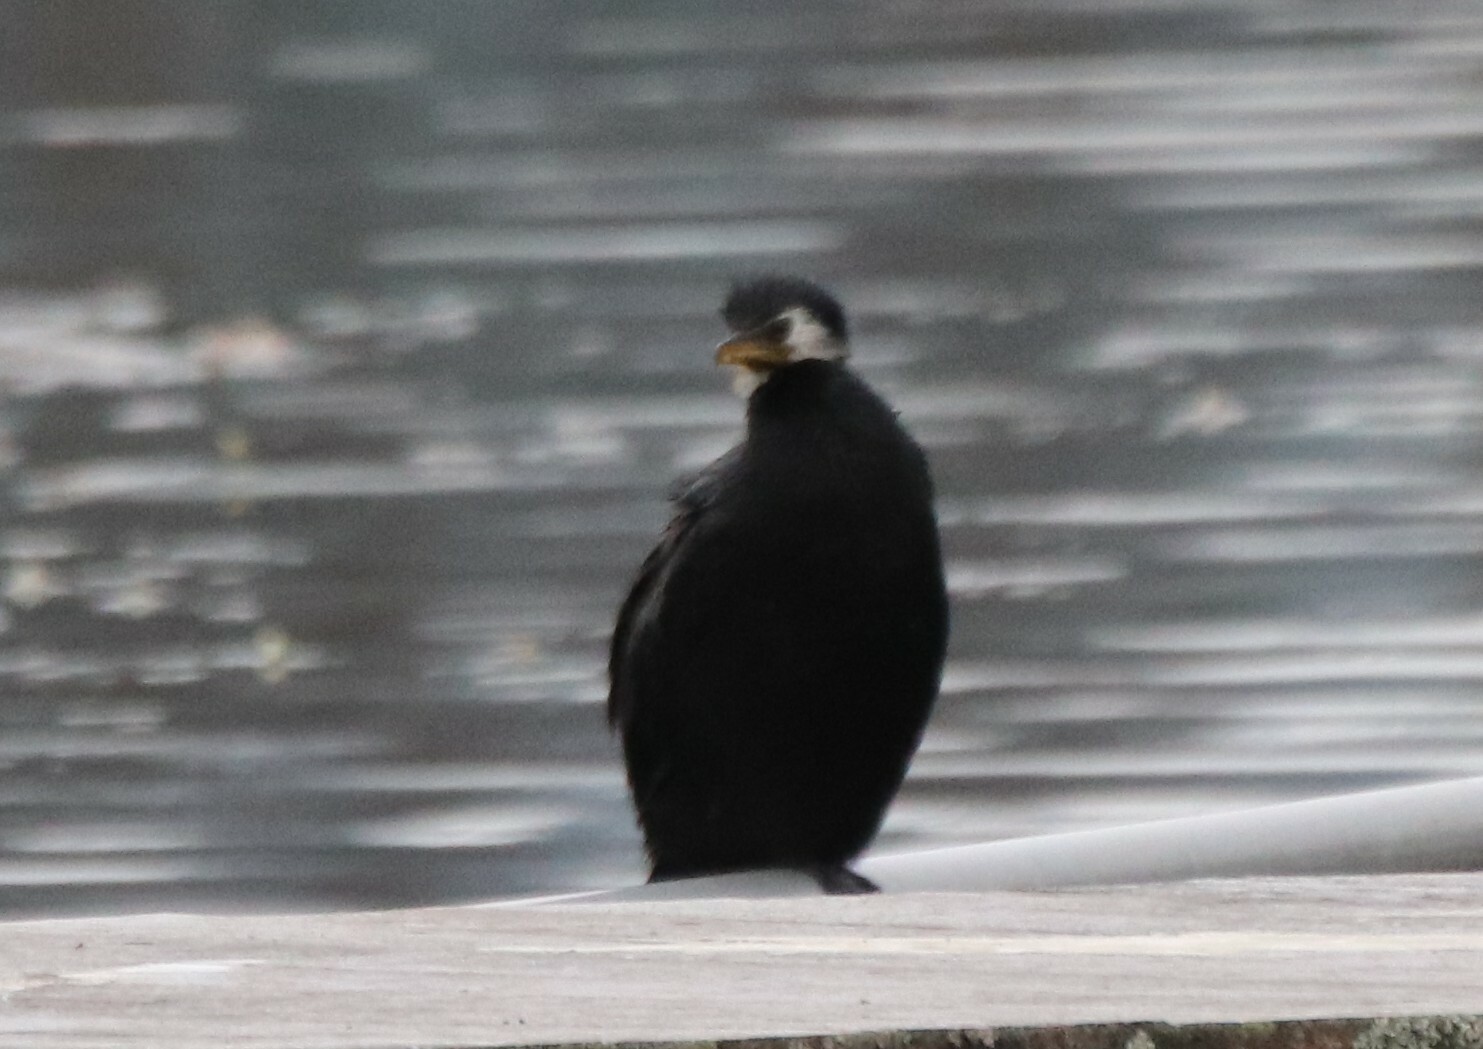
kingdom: Animalia
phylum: Chordata
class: Aves
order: Suliformes
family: Phalacrocoracidae
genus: Microcarbo
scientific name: Microcarbo melanoleucos
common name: Little pied cormorant
